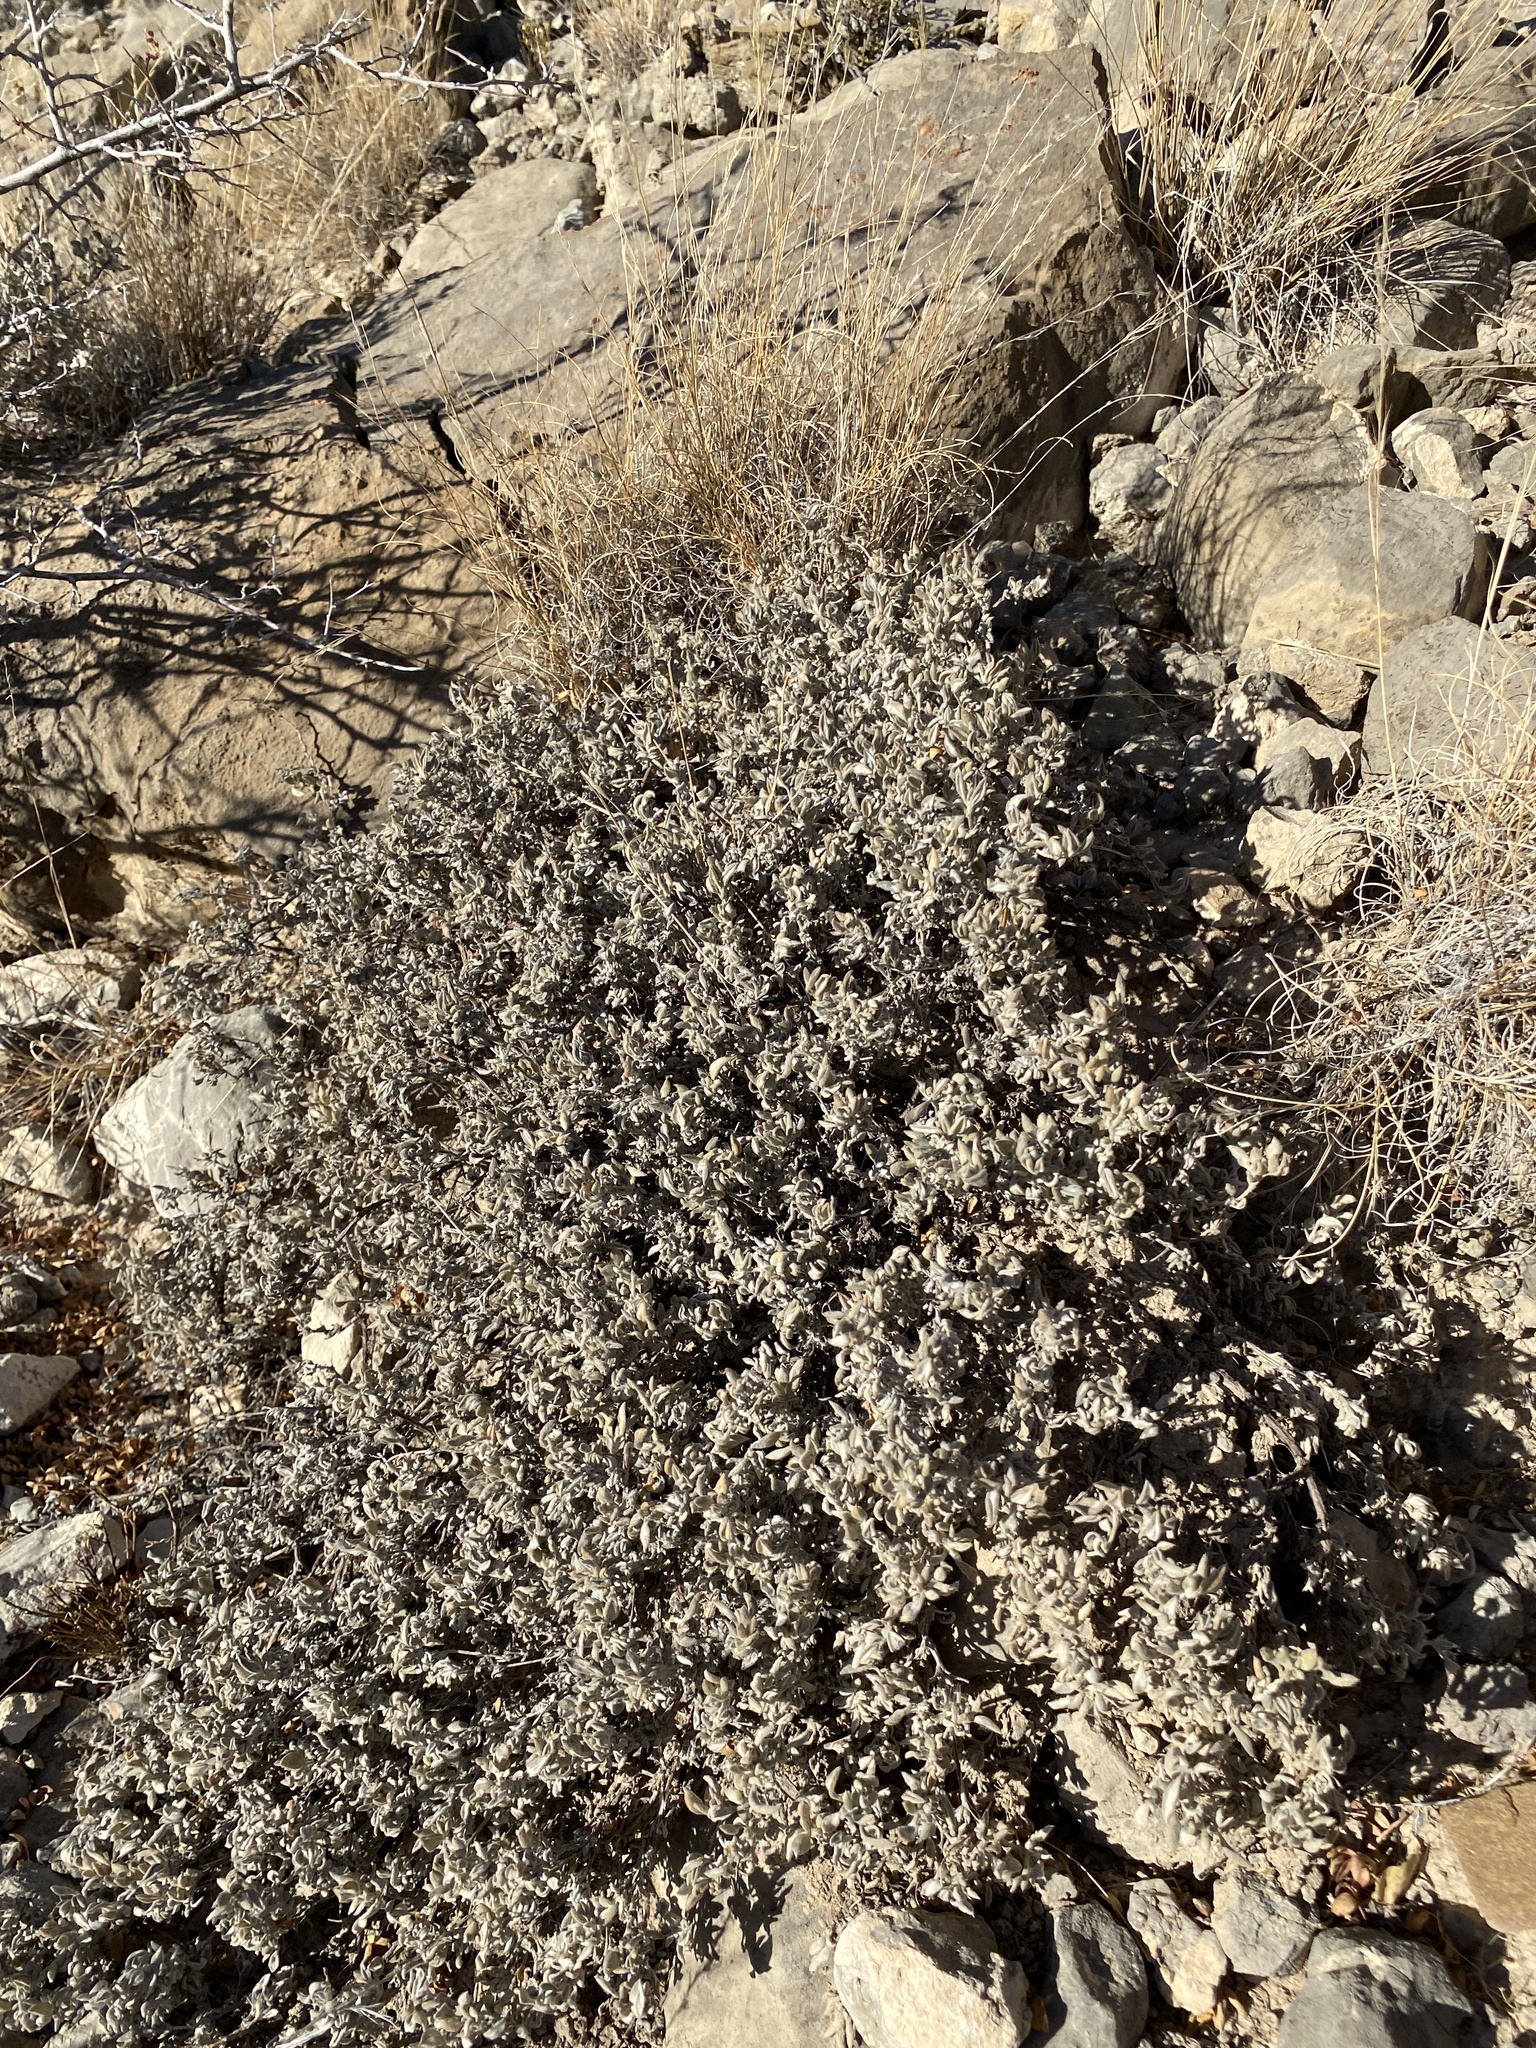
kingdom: Plantae
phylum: Tracheophyta
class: Magnoliopsida
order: Boraginales
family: Ehretiaceae
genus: Tiquilia
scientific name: Tiquilia canescens
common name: Hairy tiquilia
